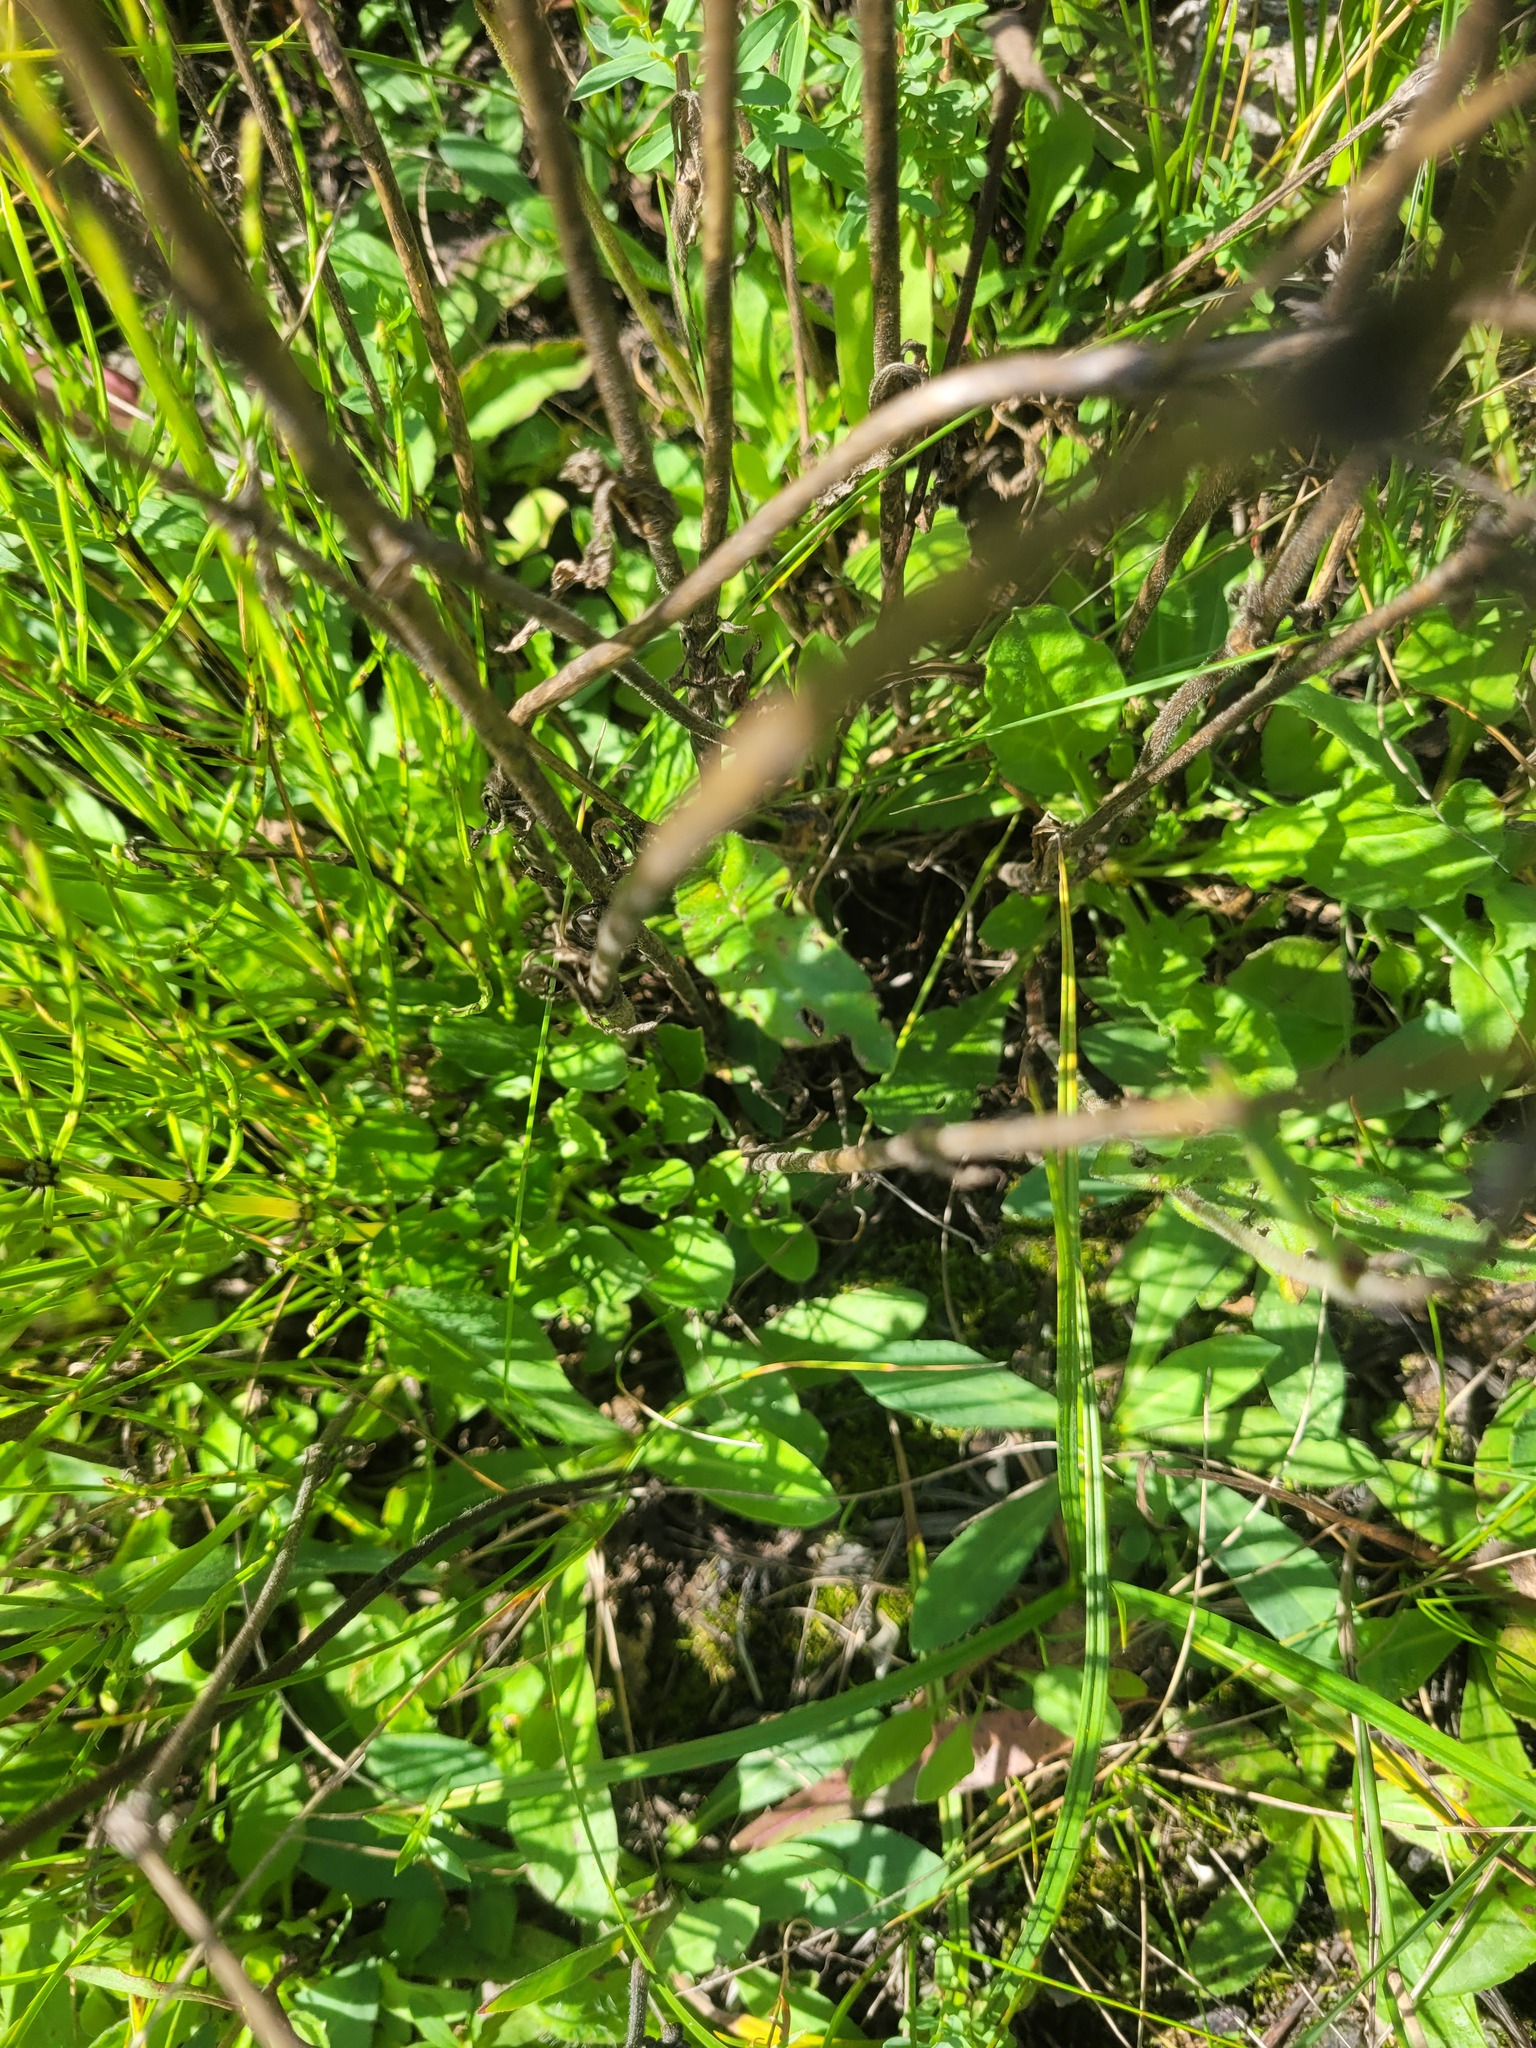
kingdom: Plantae
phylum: Tracheophyta
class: Magnoliopsida
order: Caryophyllales
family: Caryophyllaceae
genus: Silene
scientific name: Silene nutans
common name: Nottingham catchfly
